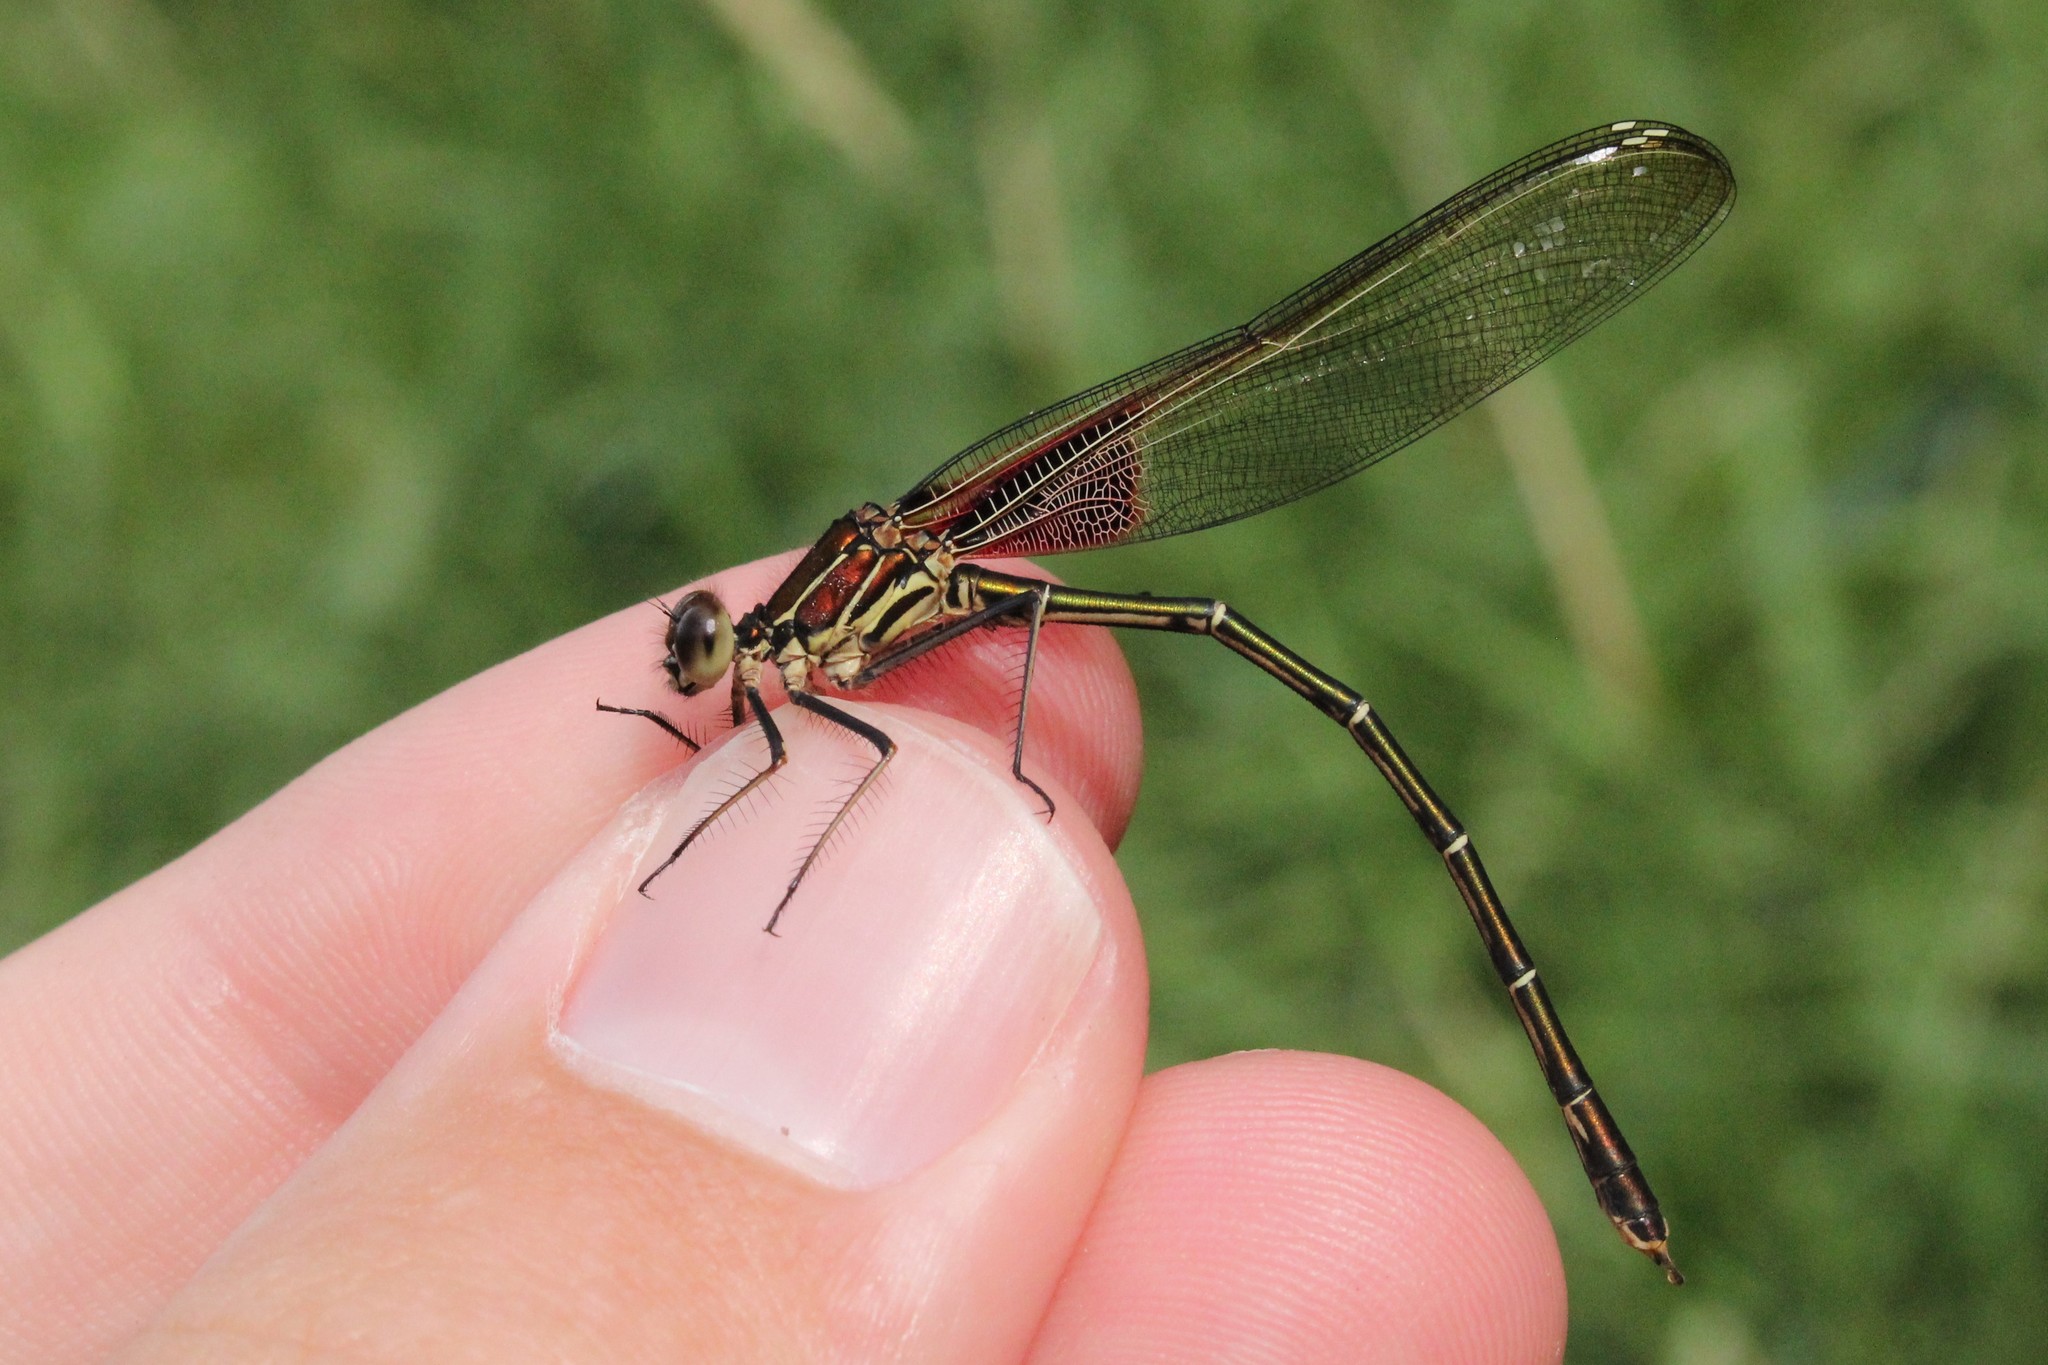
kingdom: Animalia
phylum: Arthropoda
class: Insecta
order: Odonata
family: Calopterygidae
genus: Hetaerina
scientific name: Hetaerina americana
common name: American rubyspot
